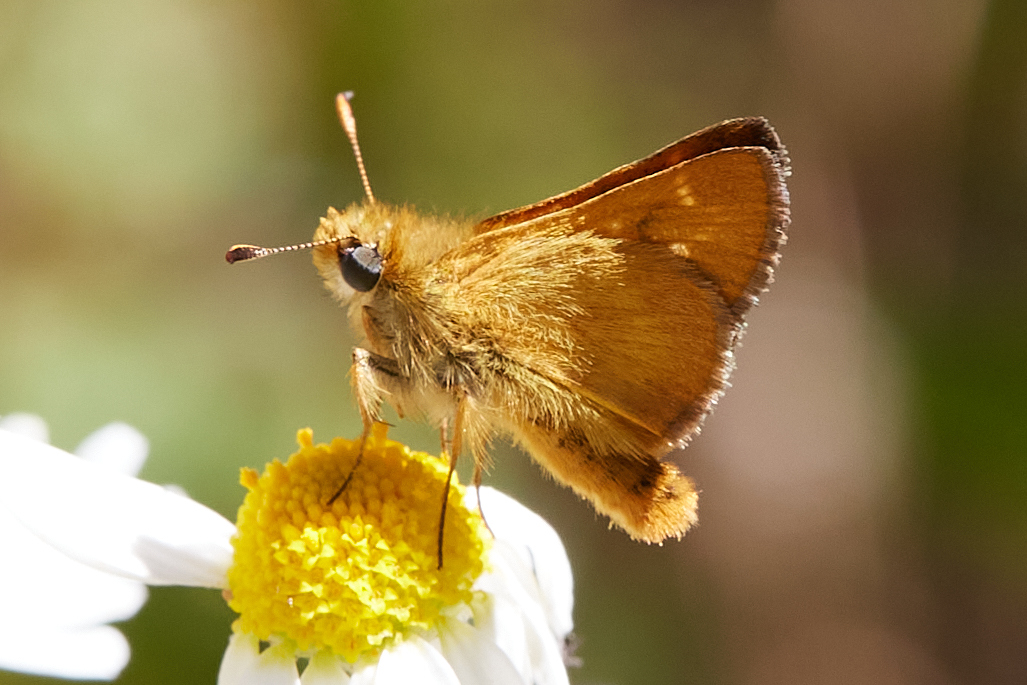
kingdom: Animalia
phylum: Arthropoda
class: Insecta
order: Lepidoptera
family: Hesperiidae
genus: Ochlodes
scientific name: Ochlodes agricola
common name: Rural skipper
